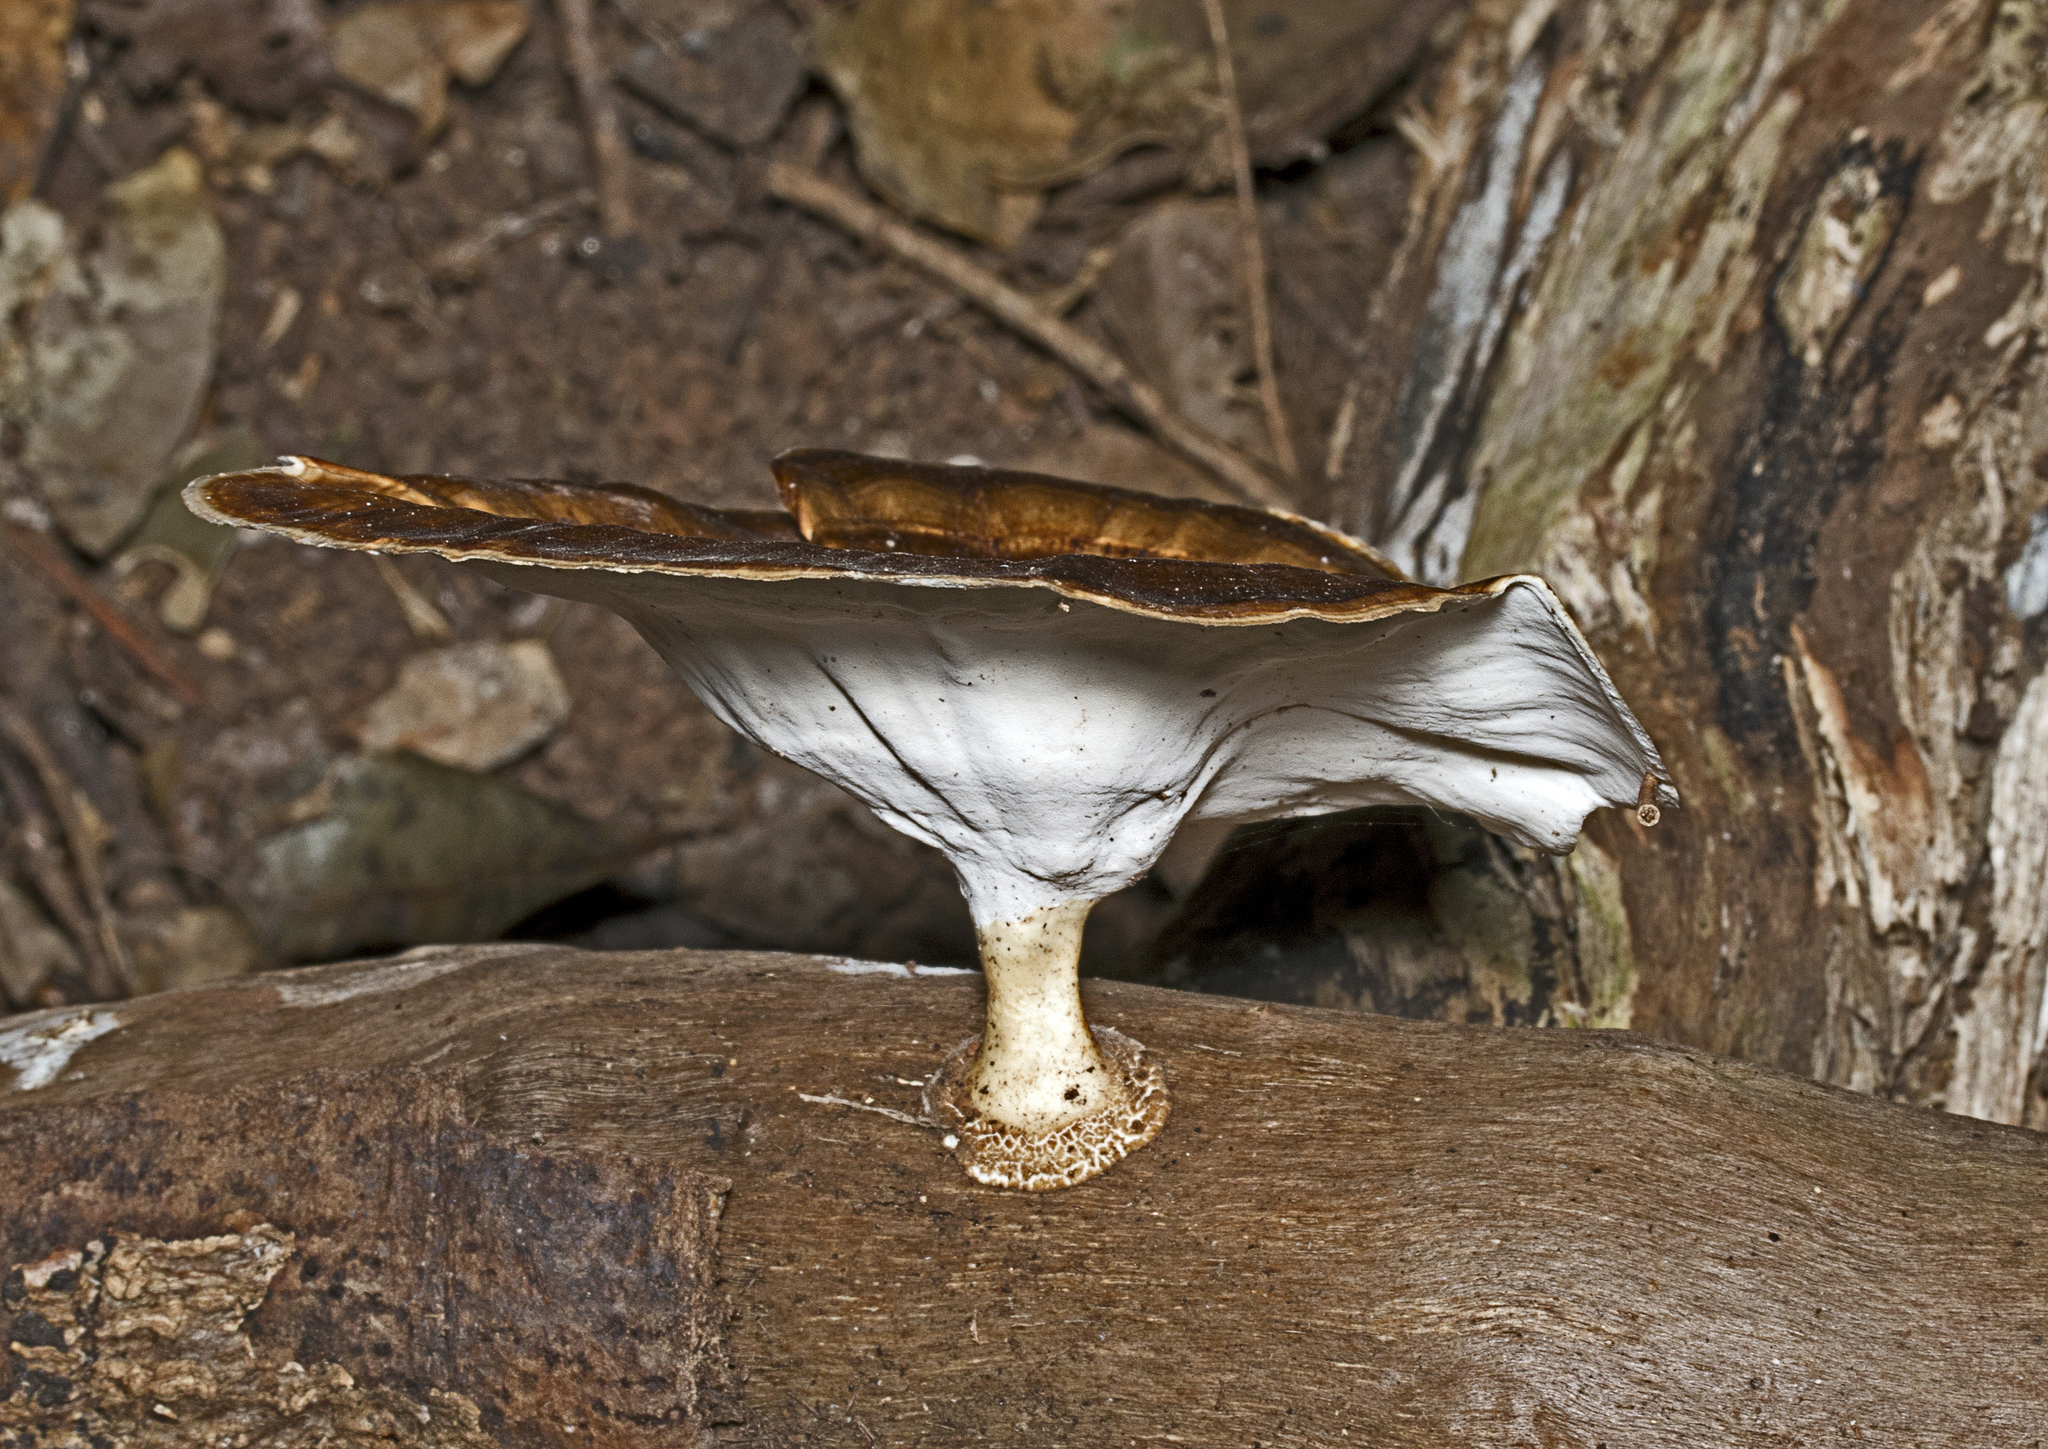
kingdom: Fungi
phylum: Basidiomycota
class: Agaricomycetes
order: Polyporales
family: Polyporaceae
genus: Microporus
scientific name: Microporus xanthopus
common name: Yellow-stemmed micropore
